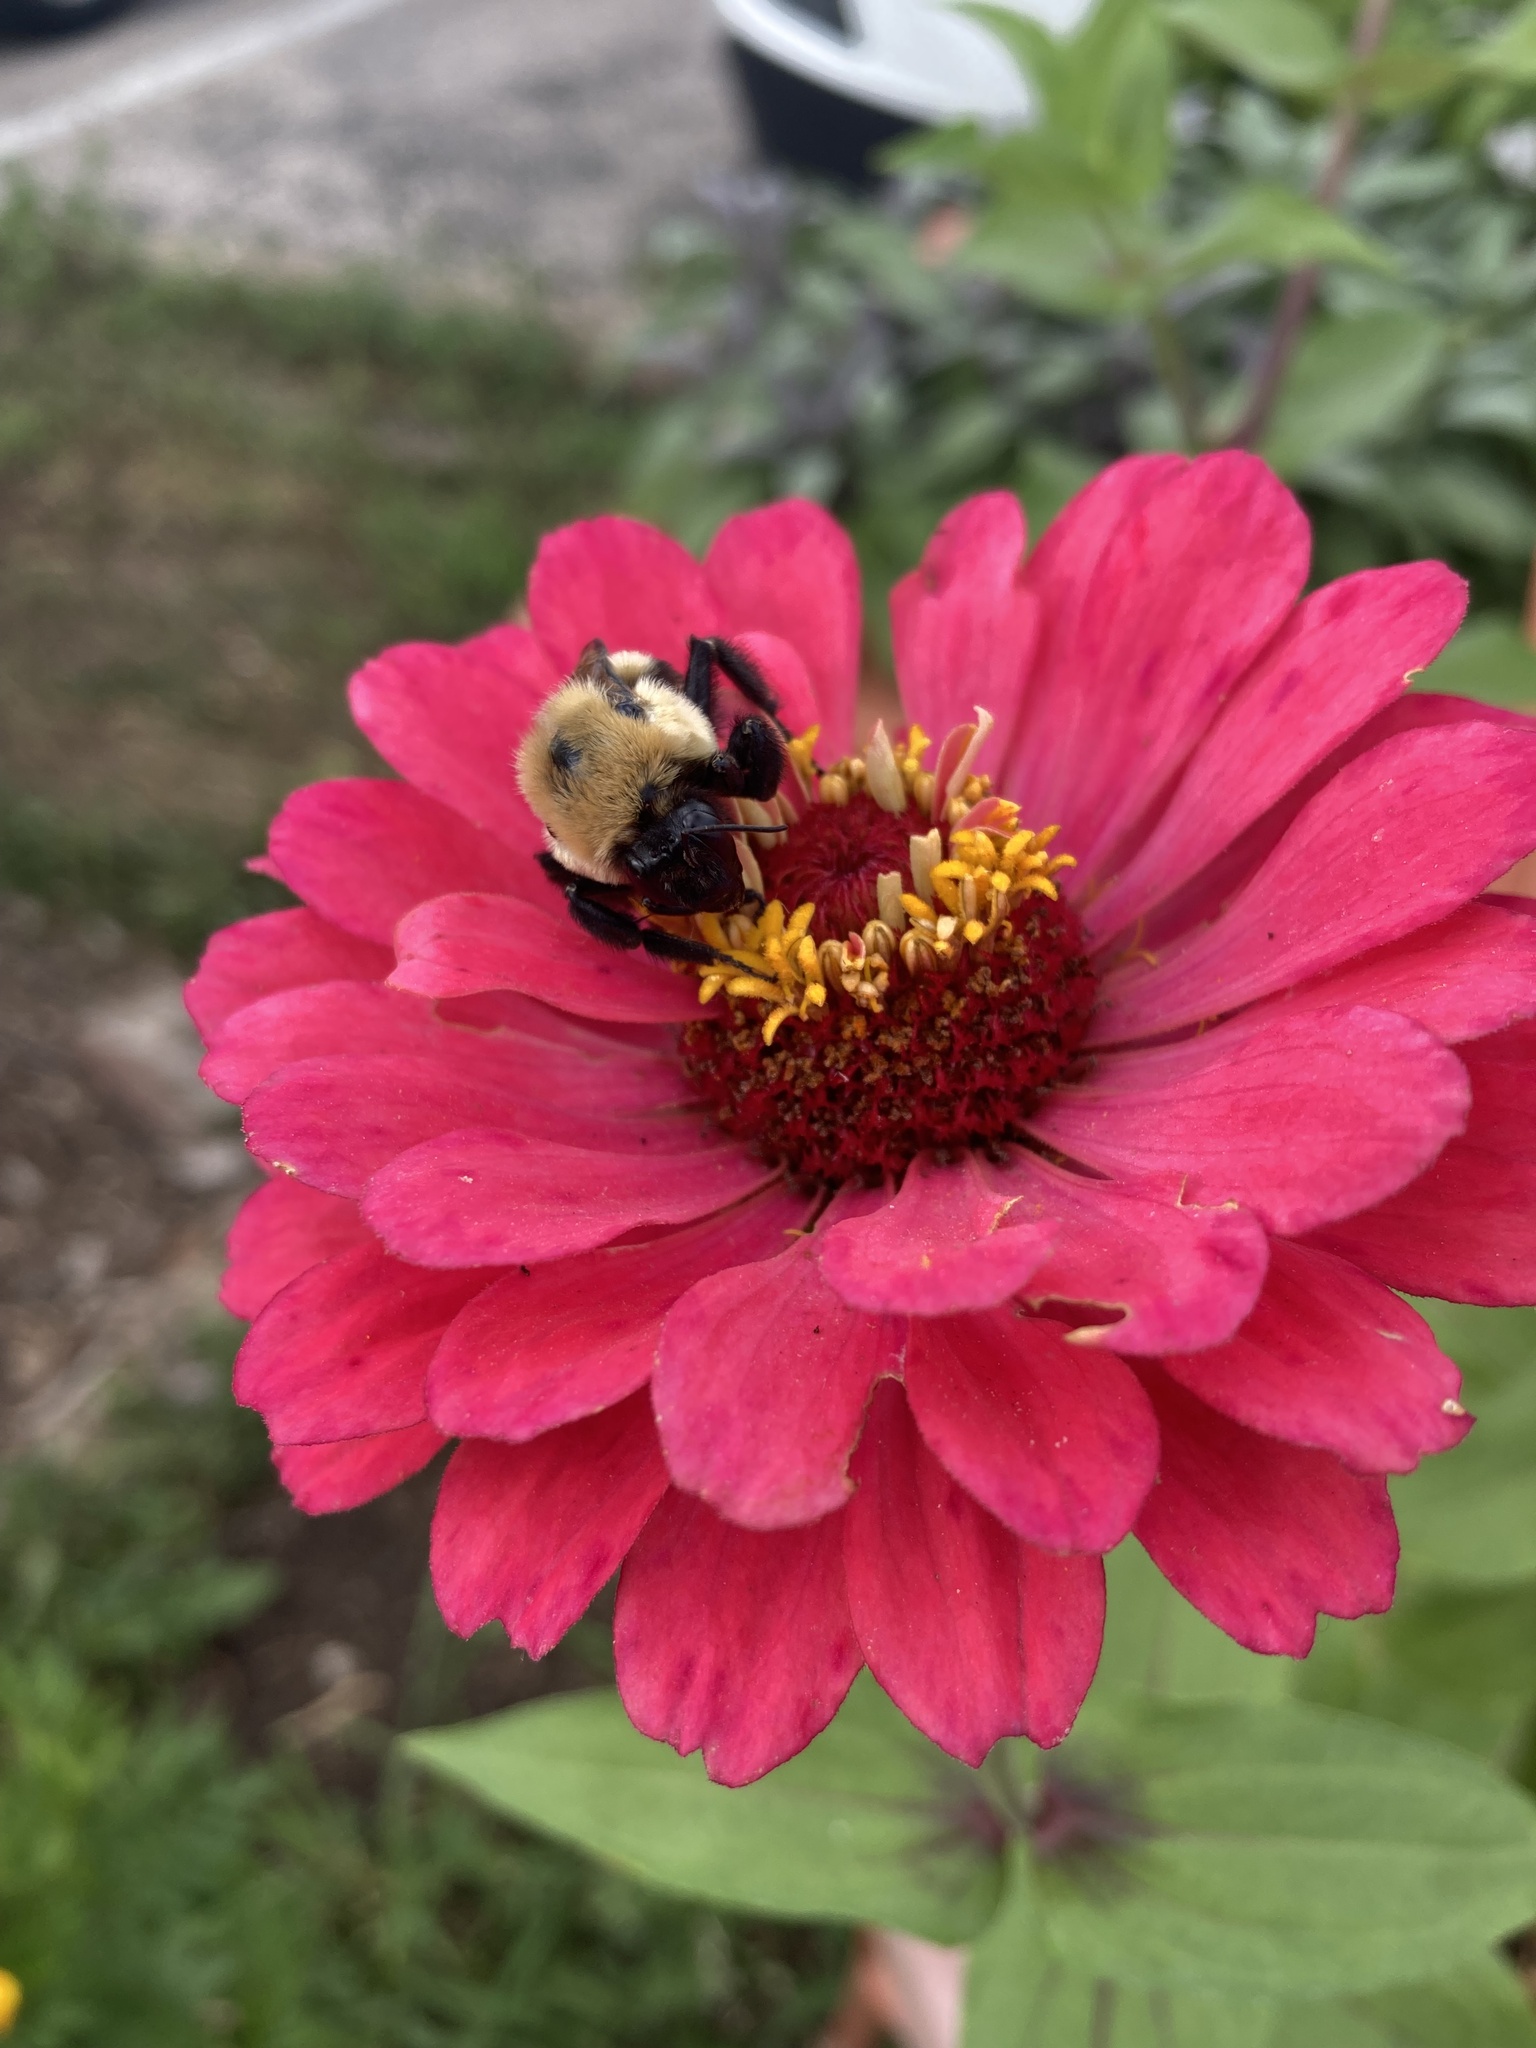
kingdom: Animalia
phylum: Arthropoda
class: Insecta
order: Hymenoptera
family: Apidae
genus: Bombus
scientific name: Bombus griseocollis
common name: Brown-belted bumble bee
